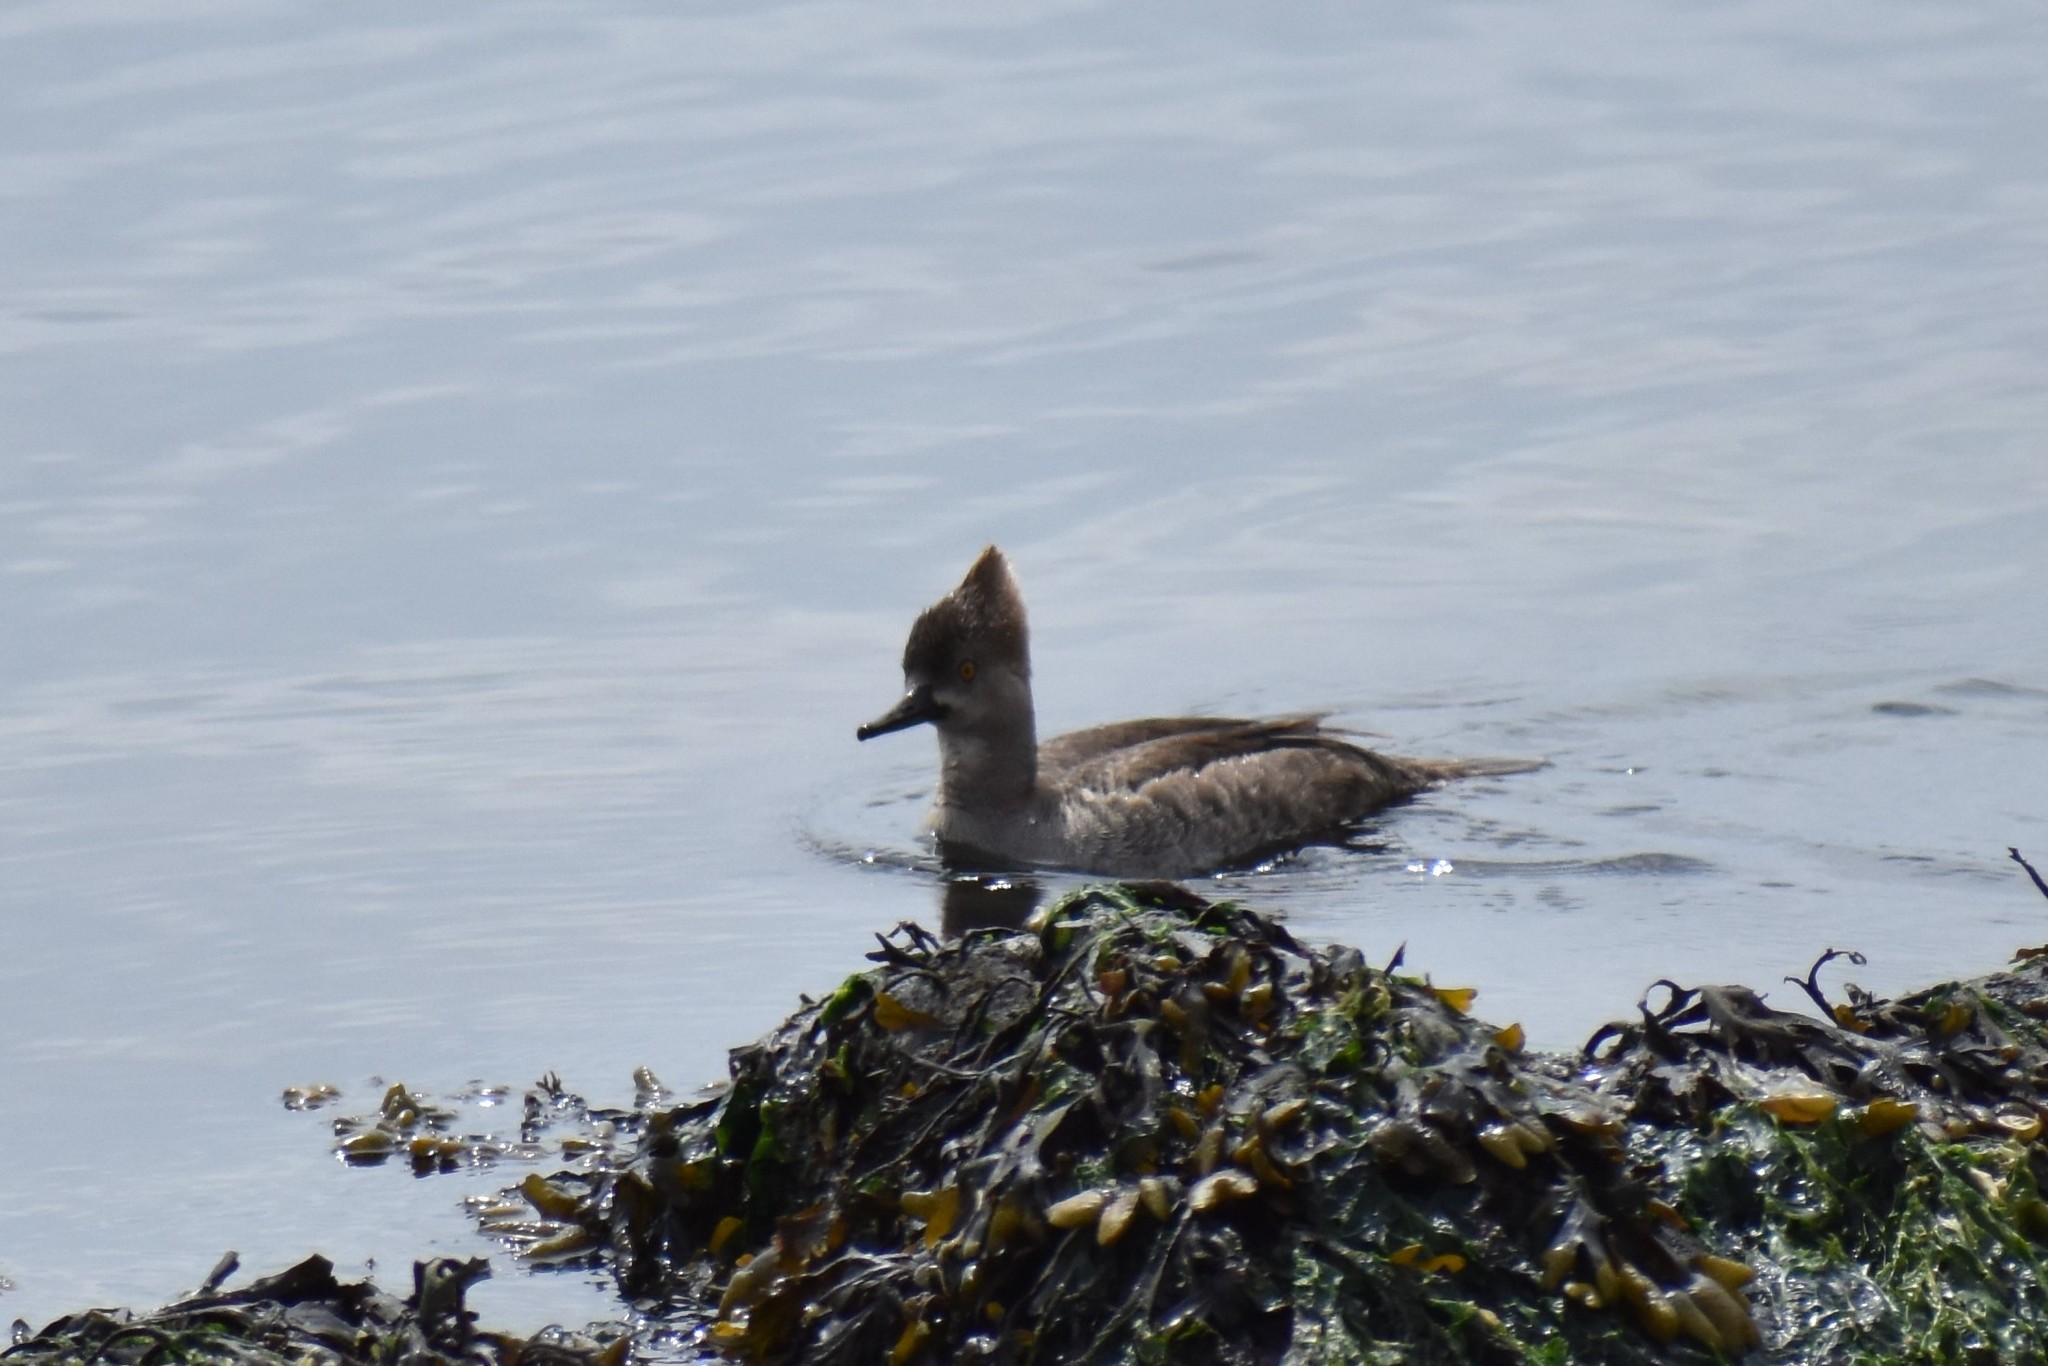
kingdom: Animalia
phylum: Chordata
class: Aves
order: Anseriformes
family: Anatidae
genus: Lophodytes
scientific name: Lophodytes cucullatus
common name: Hooded merganser
